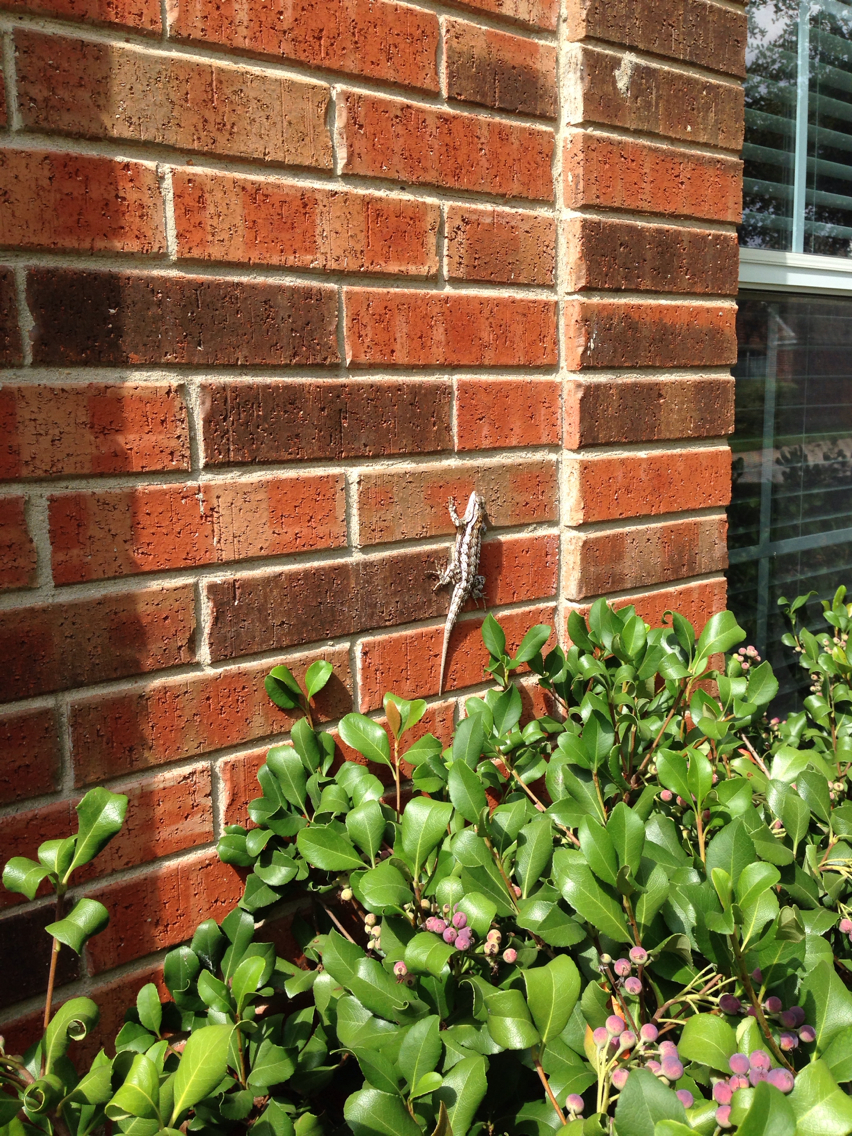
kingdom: Animalia
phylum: Chordata
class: Squamata
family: Phrynosomatidae
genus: Sceloporus
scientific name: Sceloporus olivaceus
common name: Texas spiny lizard
